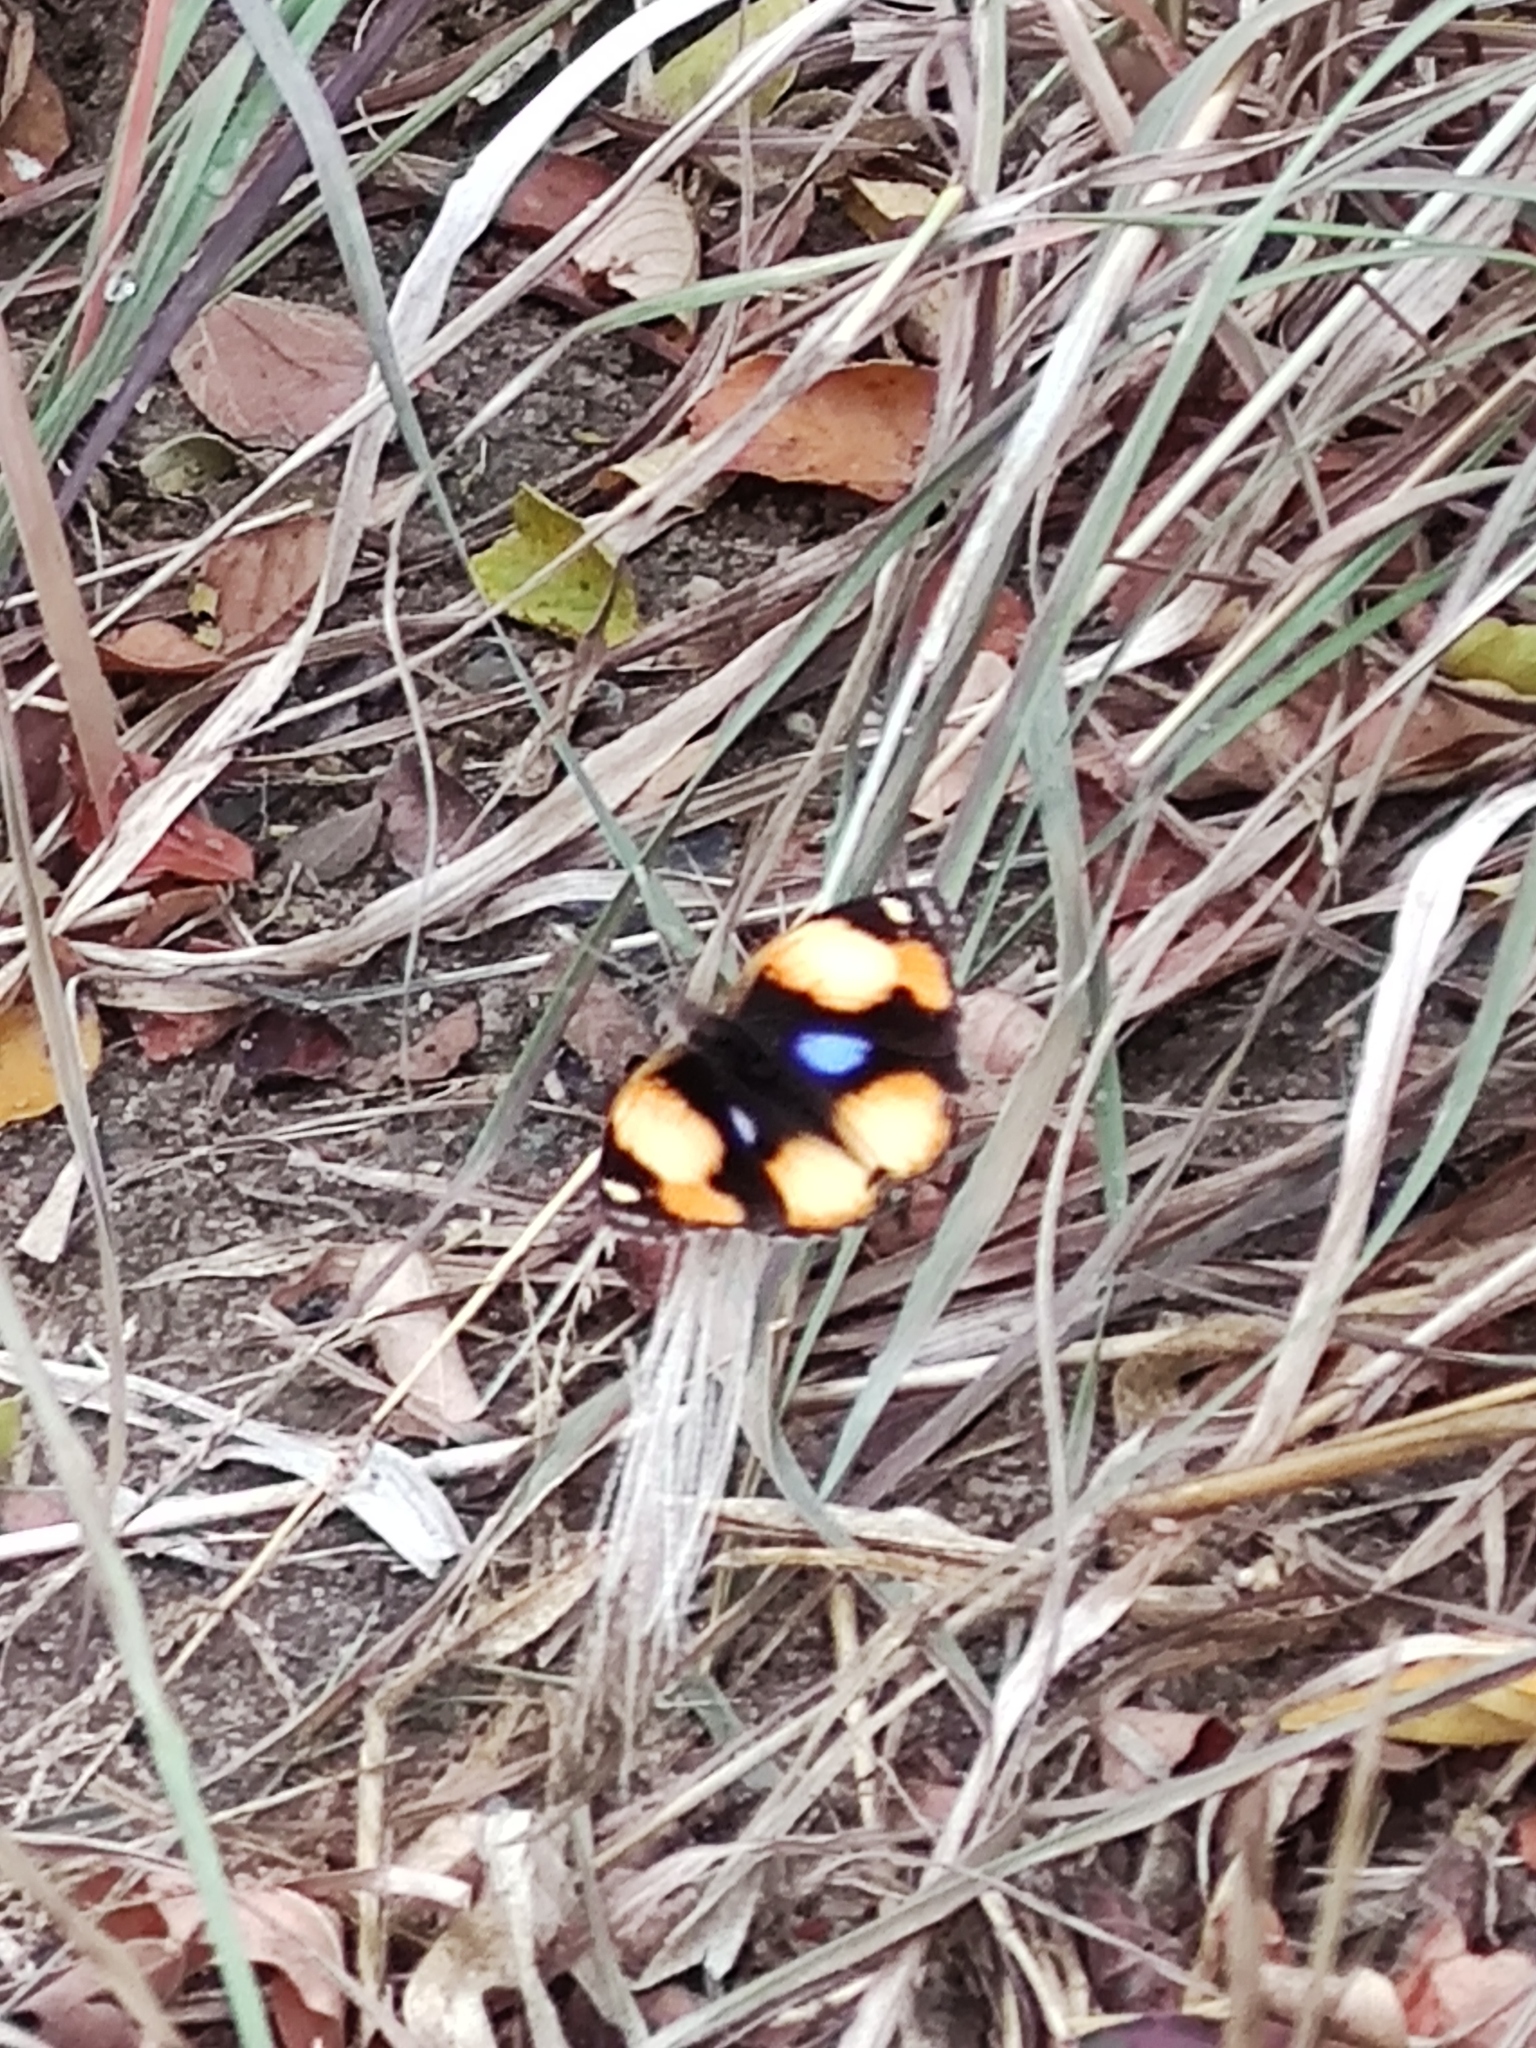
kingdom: Animalia
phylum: Arthropoda
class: Insecta
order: Lepidoptera
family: Nymphalidae
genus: Junonia
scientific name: Junonia hierta
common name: Yellow pansy
